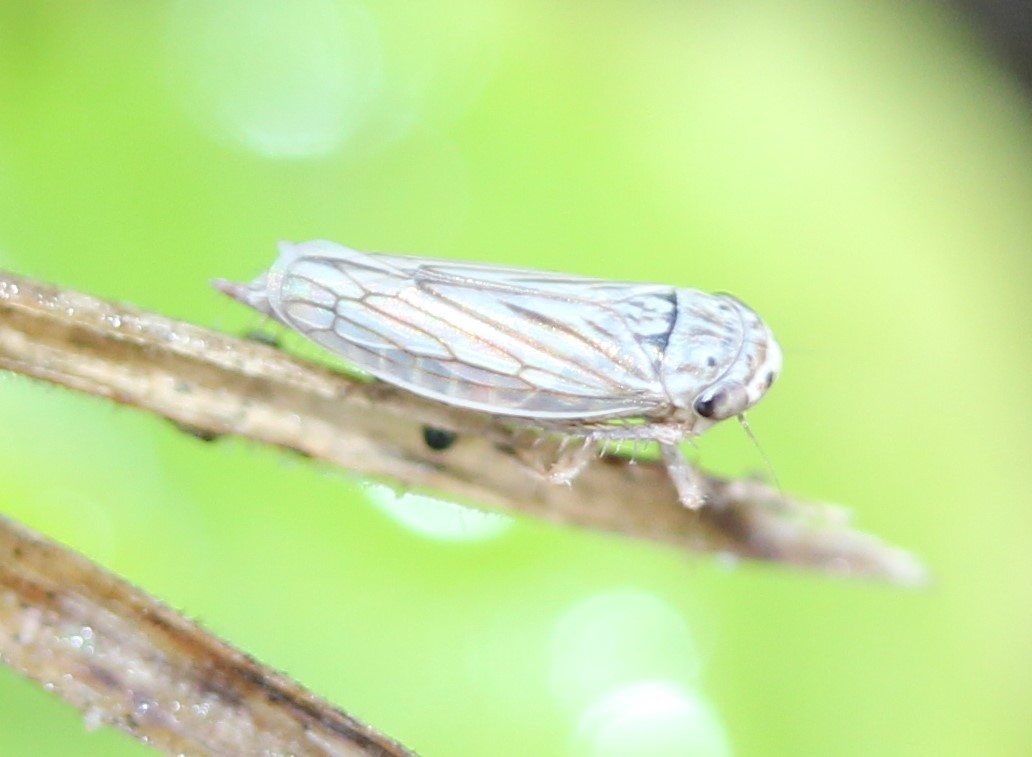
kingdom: Animalia
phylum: Arthropoda
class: Insecta
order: Hemiptera
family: Cicadellidae
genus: Exitianus
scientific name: Exitianus exitiosus
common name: Gray lawn leafhopper
